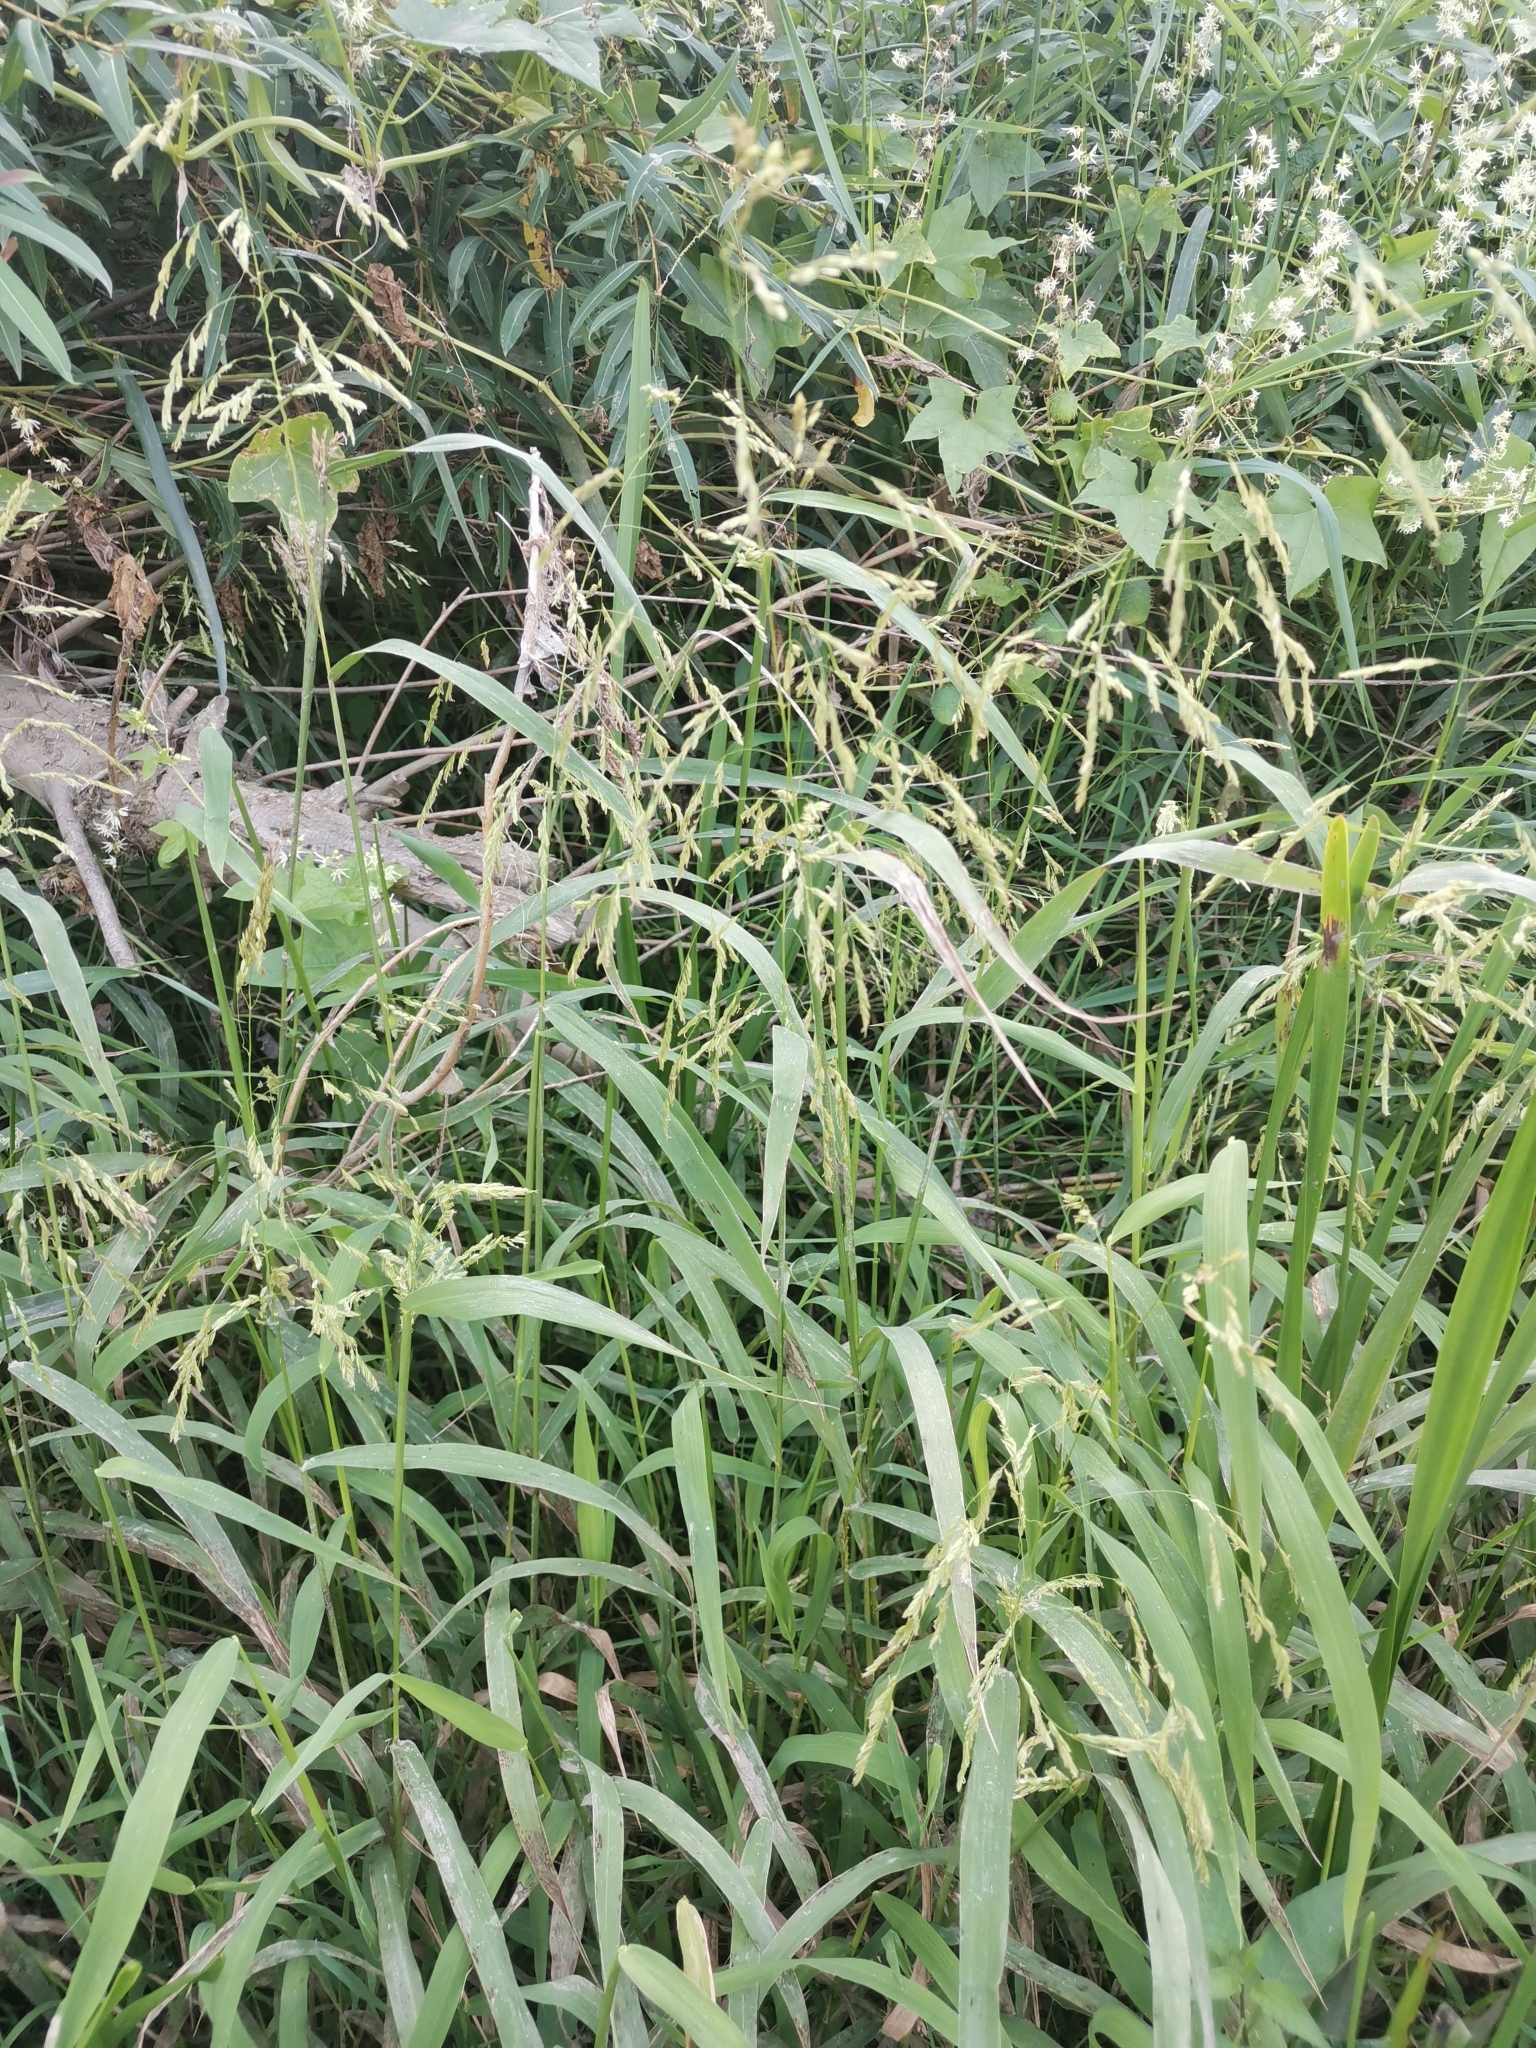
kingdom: Plantae
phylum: Tracheophyta
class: Liliopsida
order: Poales
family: Poaceae
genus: Leersia
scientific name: Leersia oryzoides
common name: Cut-grass
